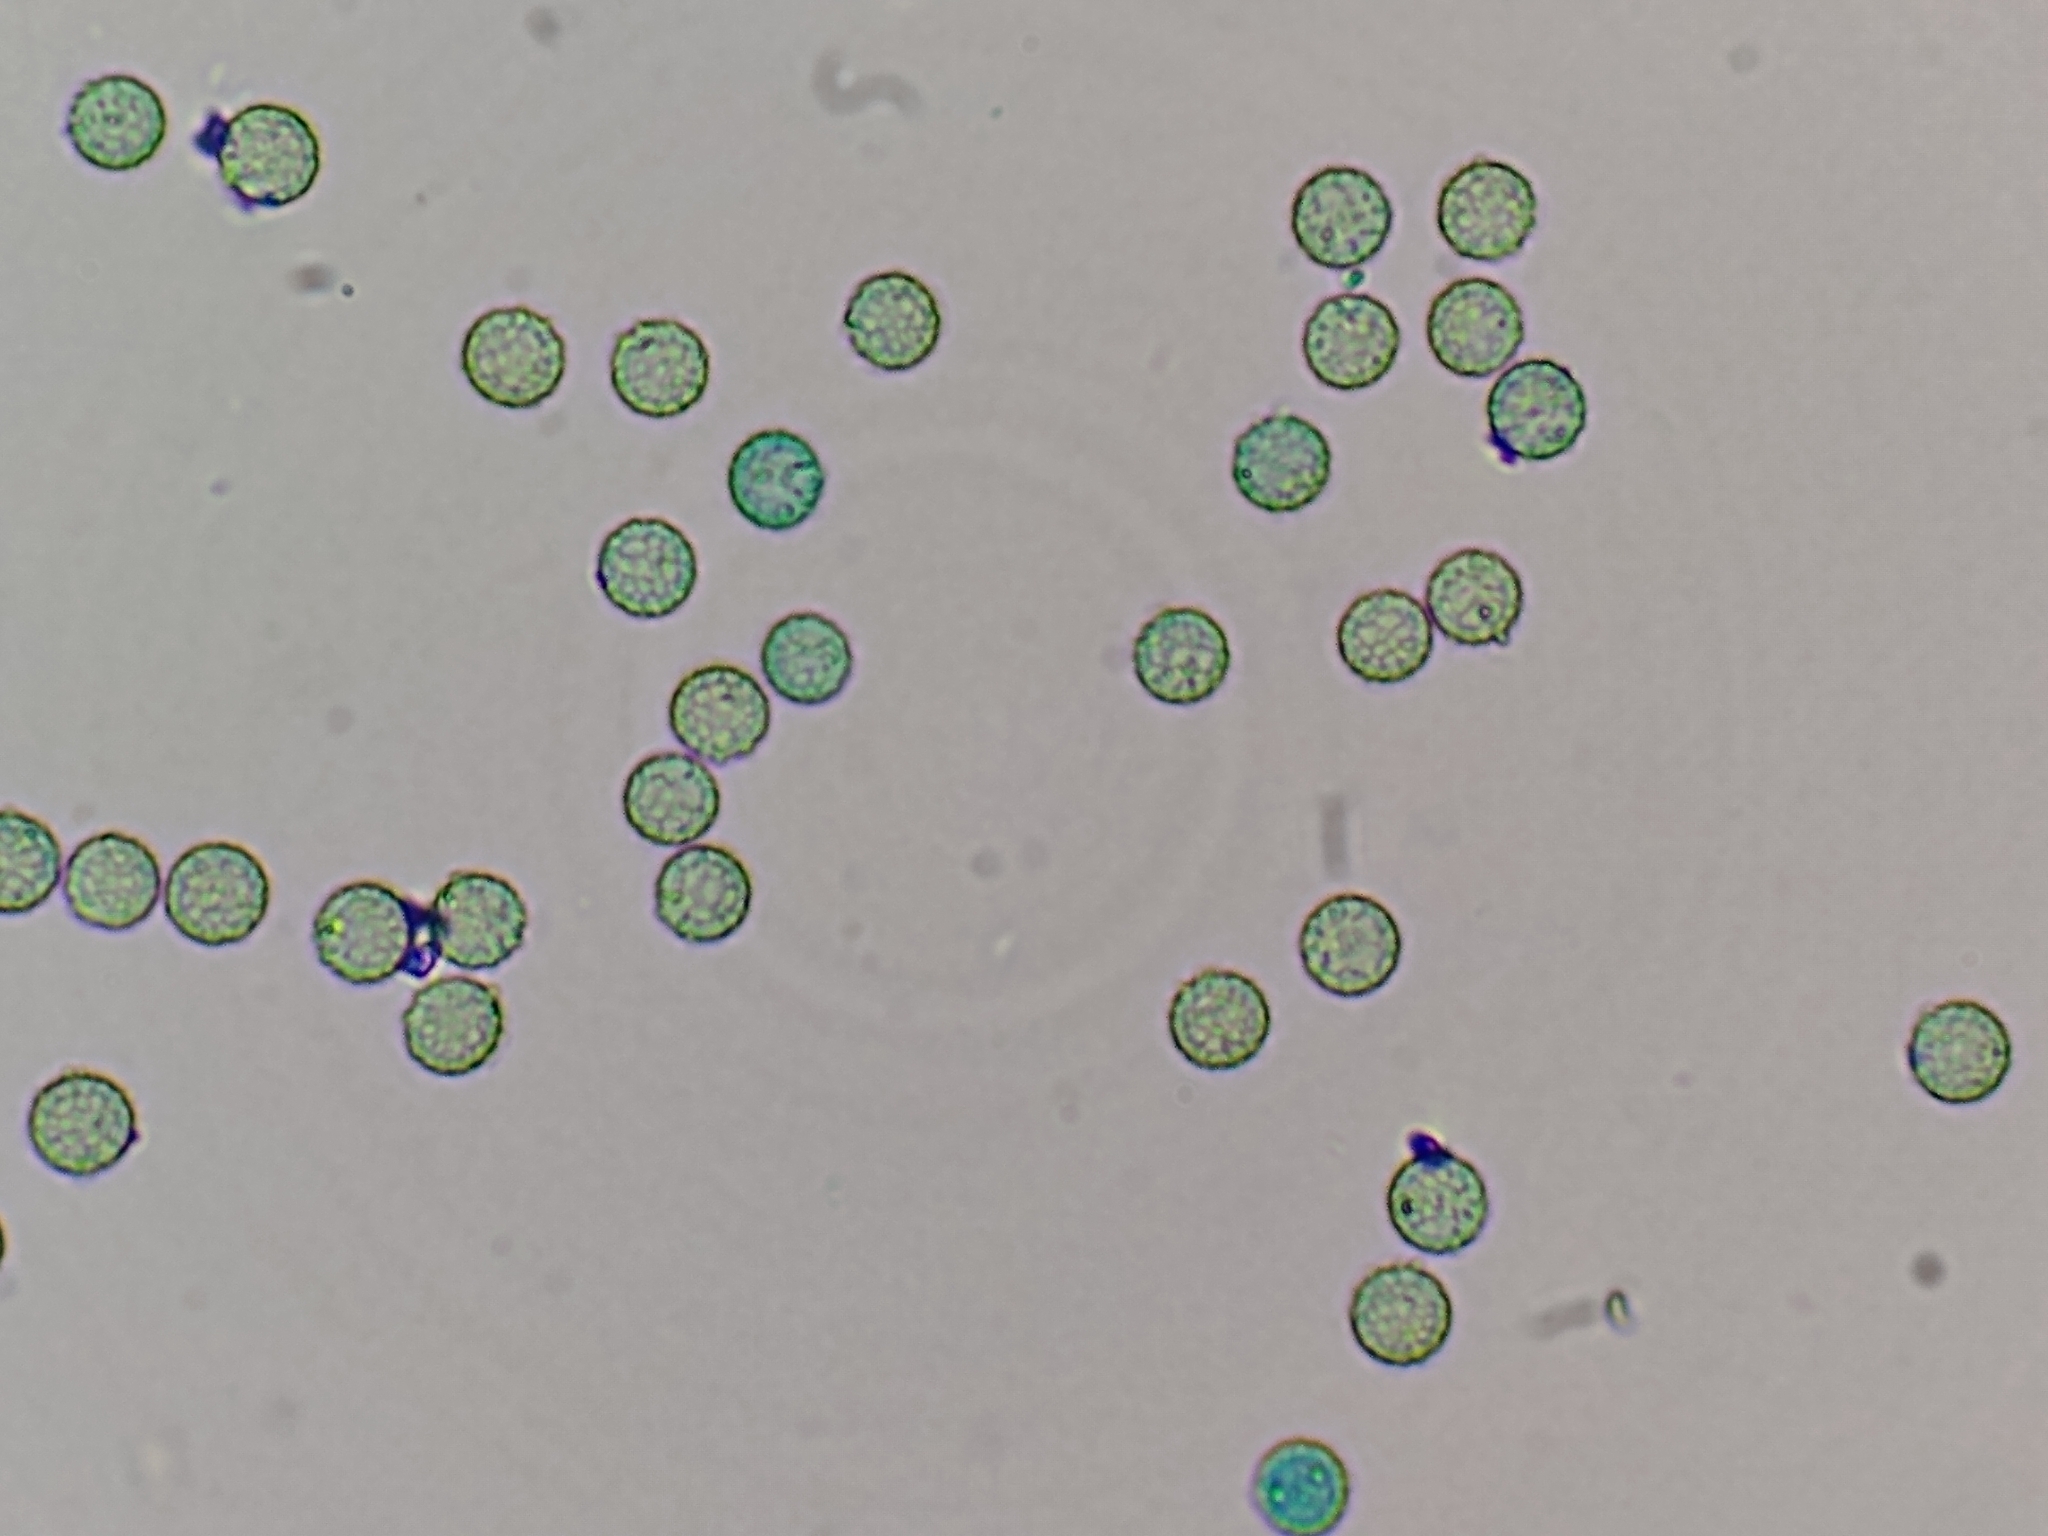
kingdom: Protozoa
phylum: Mycetozoa
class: Myxomycetes
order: Cribrariales
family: Tubiferaceae
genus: Alwisia
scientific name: Alwisia lloydiae
